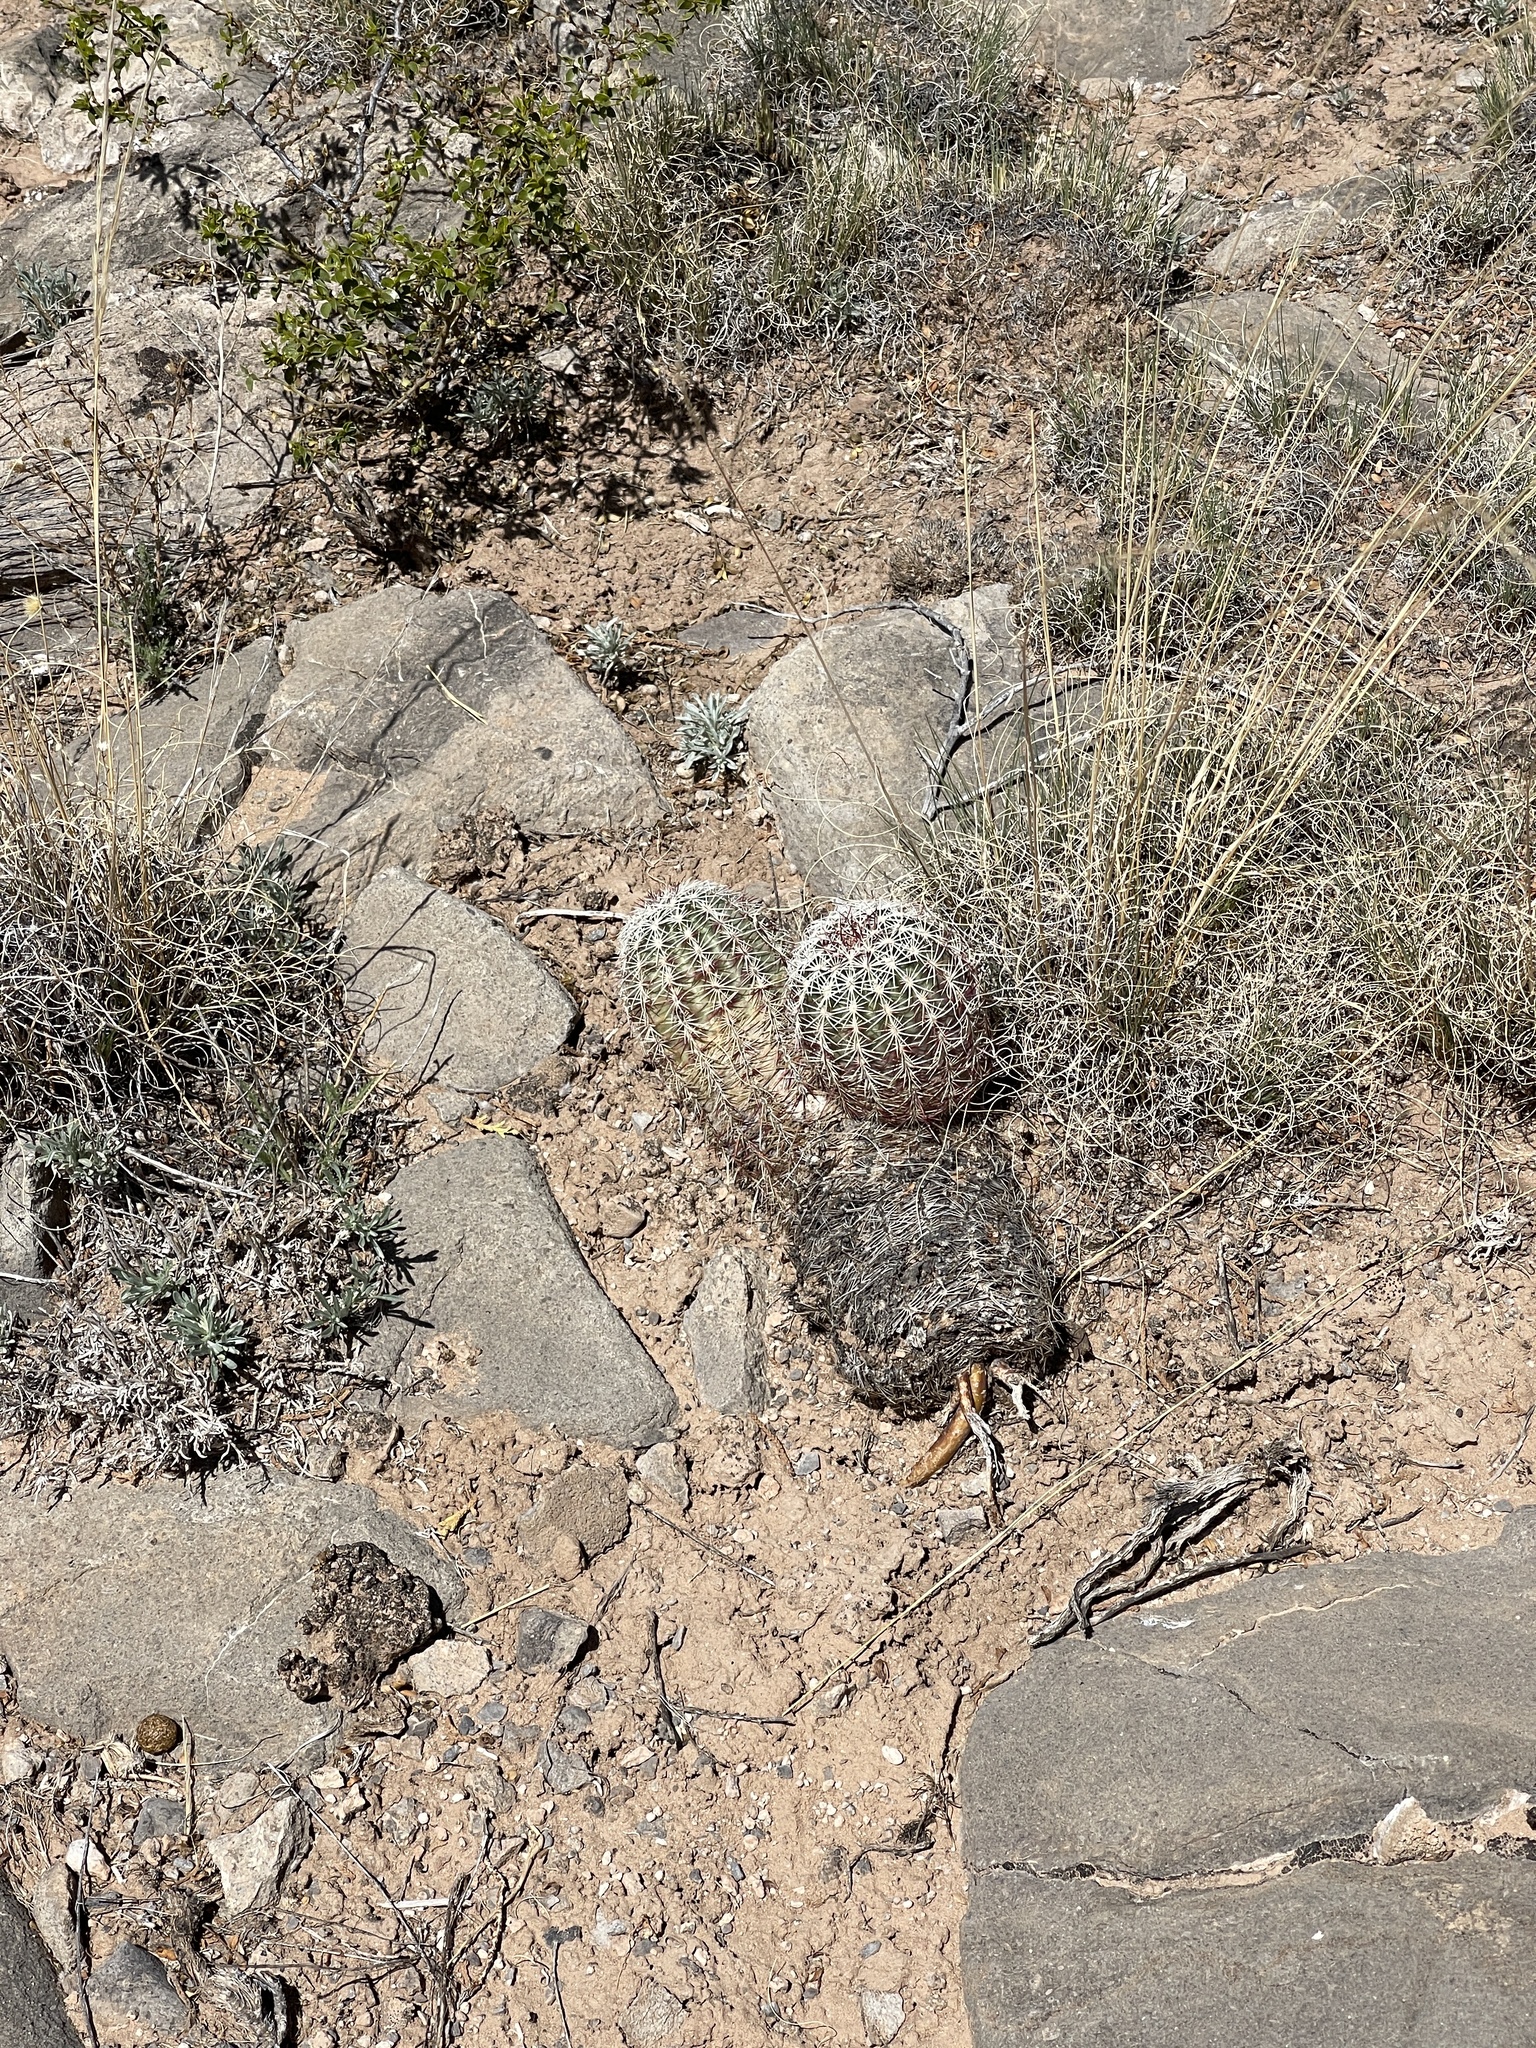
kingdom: Plantae
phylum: Tracheophyta
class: Magnoliopsida
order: Caryophyllales
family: Cactaceae
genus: Echinocereus
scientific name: Echinocereus viridiflorus
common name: Nylon hedgehog cactus
